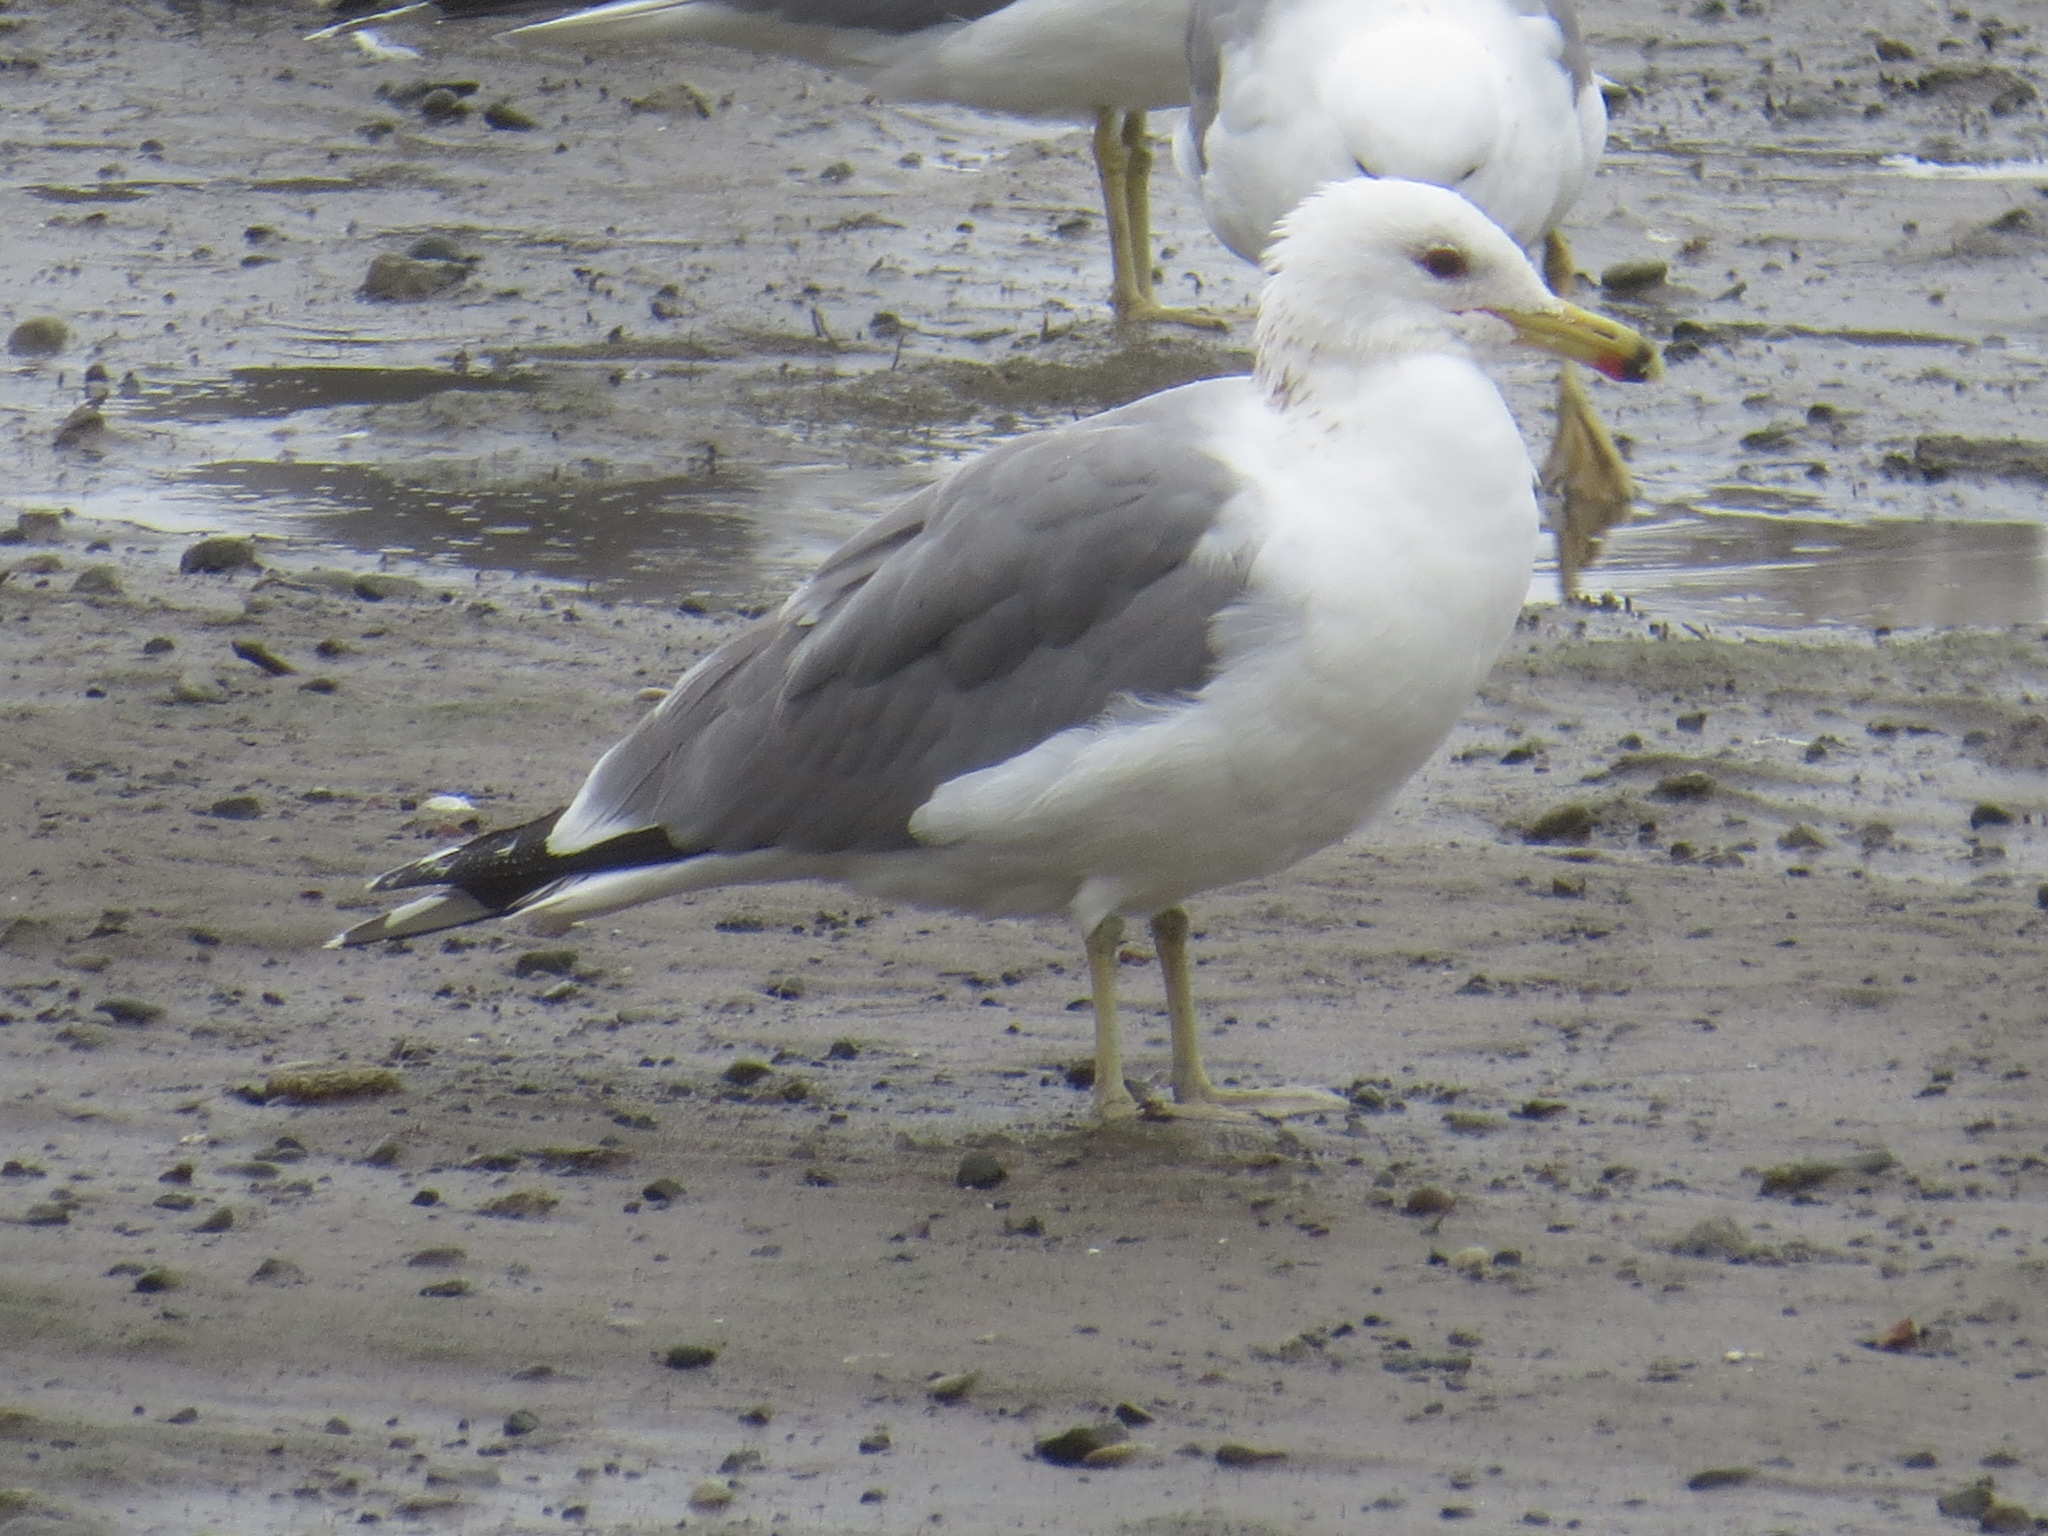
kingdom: Animalia
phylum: Chordata
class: Aves
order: Charadriiformes
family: Laridae
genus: Larus
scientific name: Larus californicus
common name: California gull
